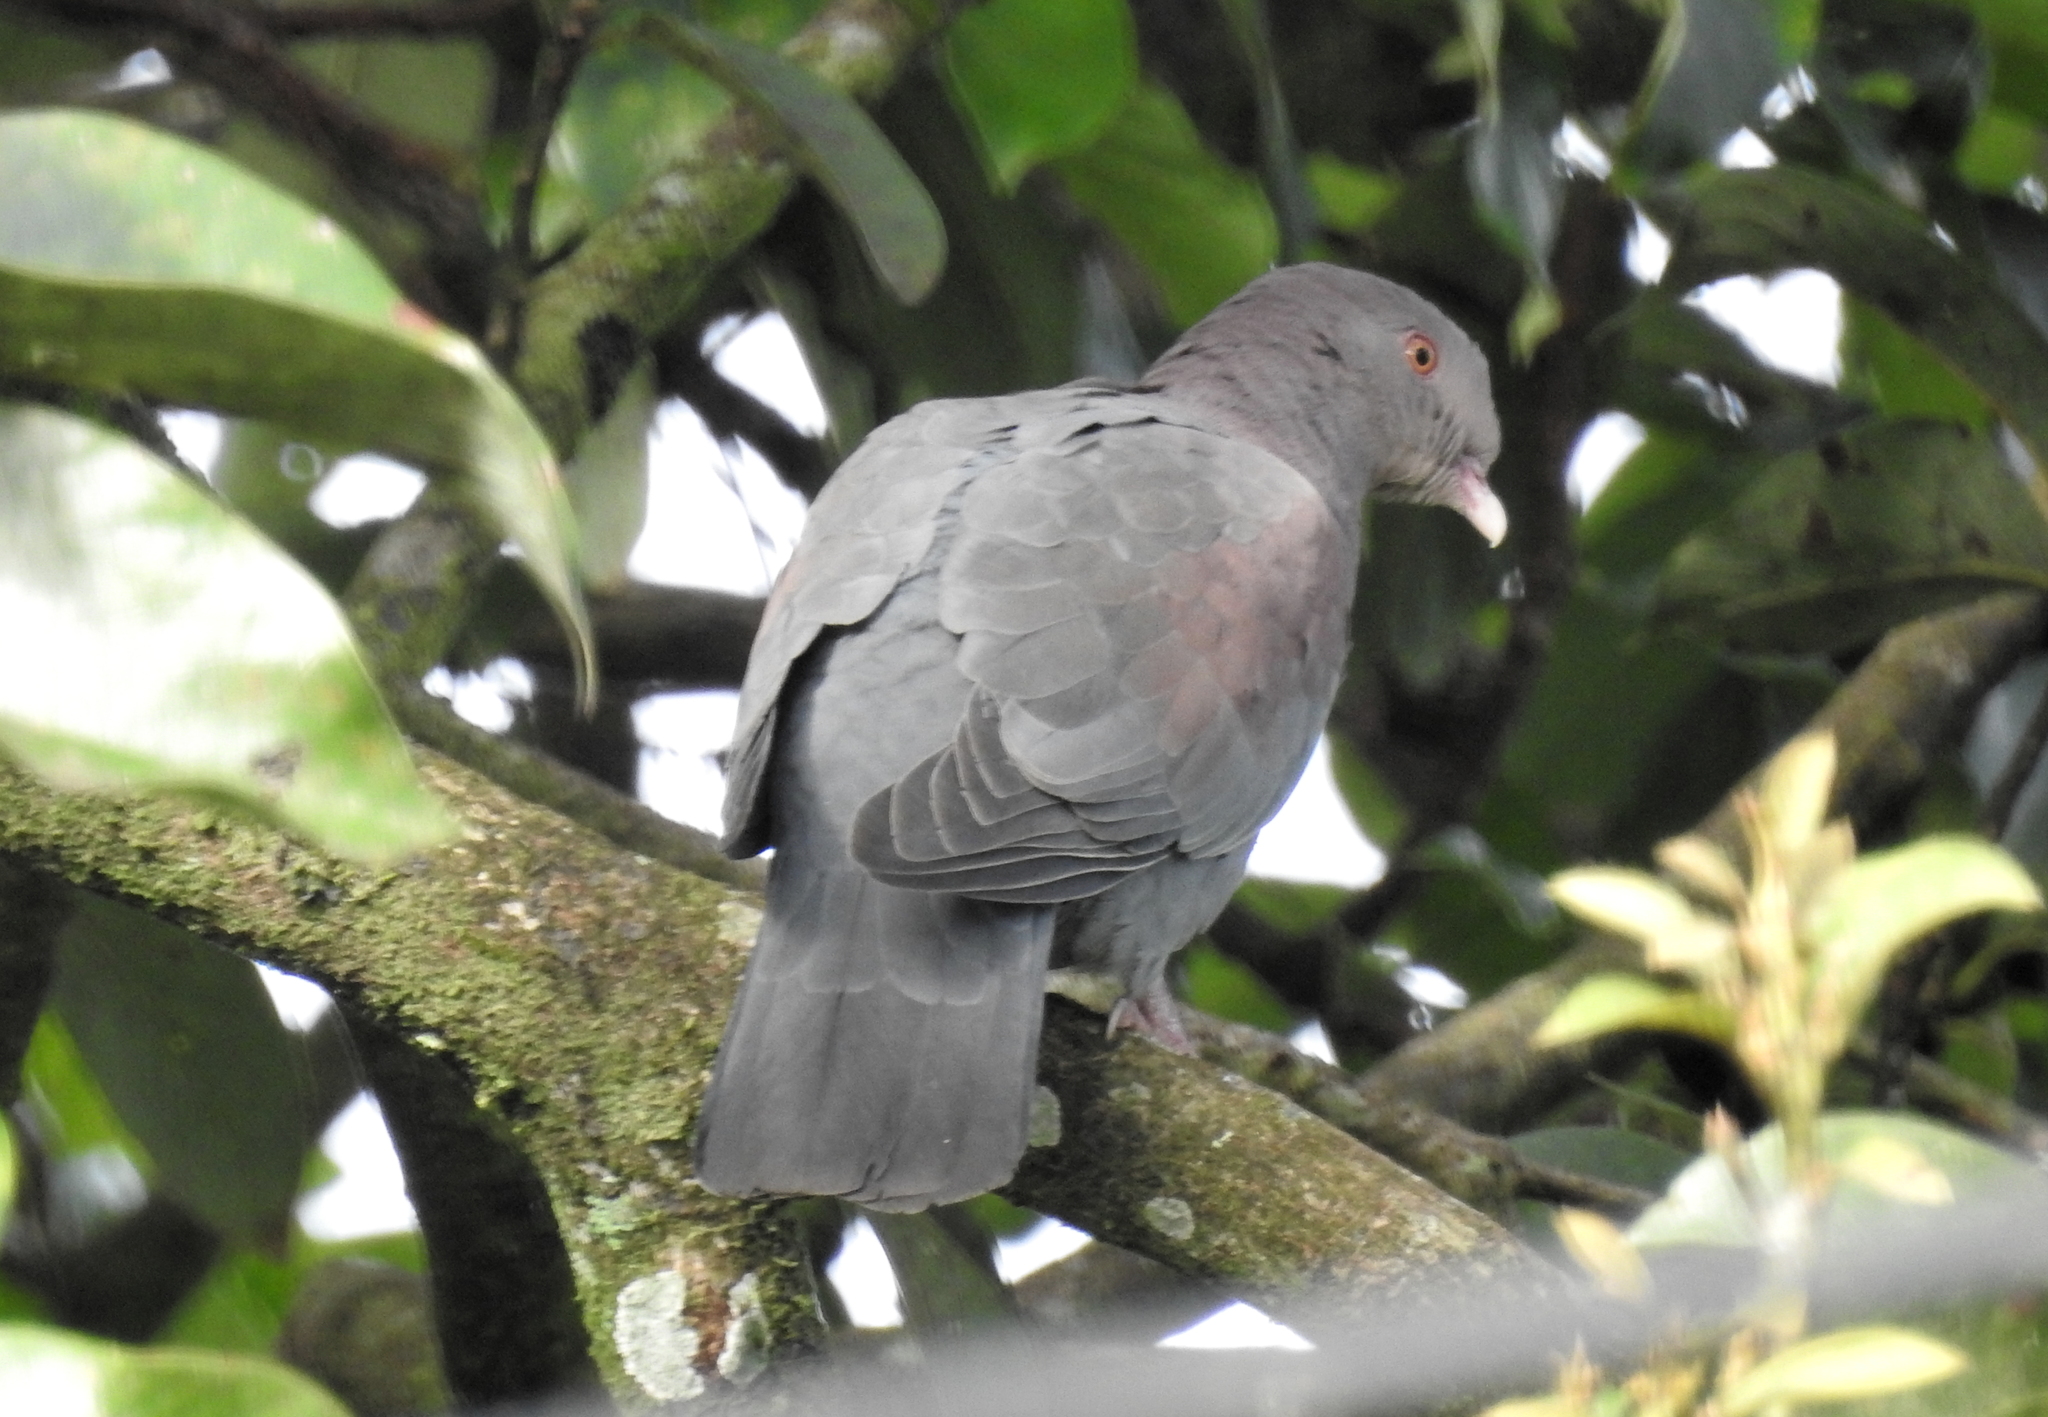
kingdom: Animalia
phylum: Chordata
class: Aves
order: Columbiformes
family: Columbidae
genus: Patagioenas
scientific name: Patagioenas flavirostris
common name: Red-billed pigeon
